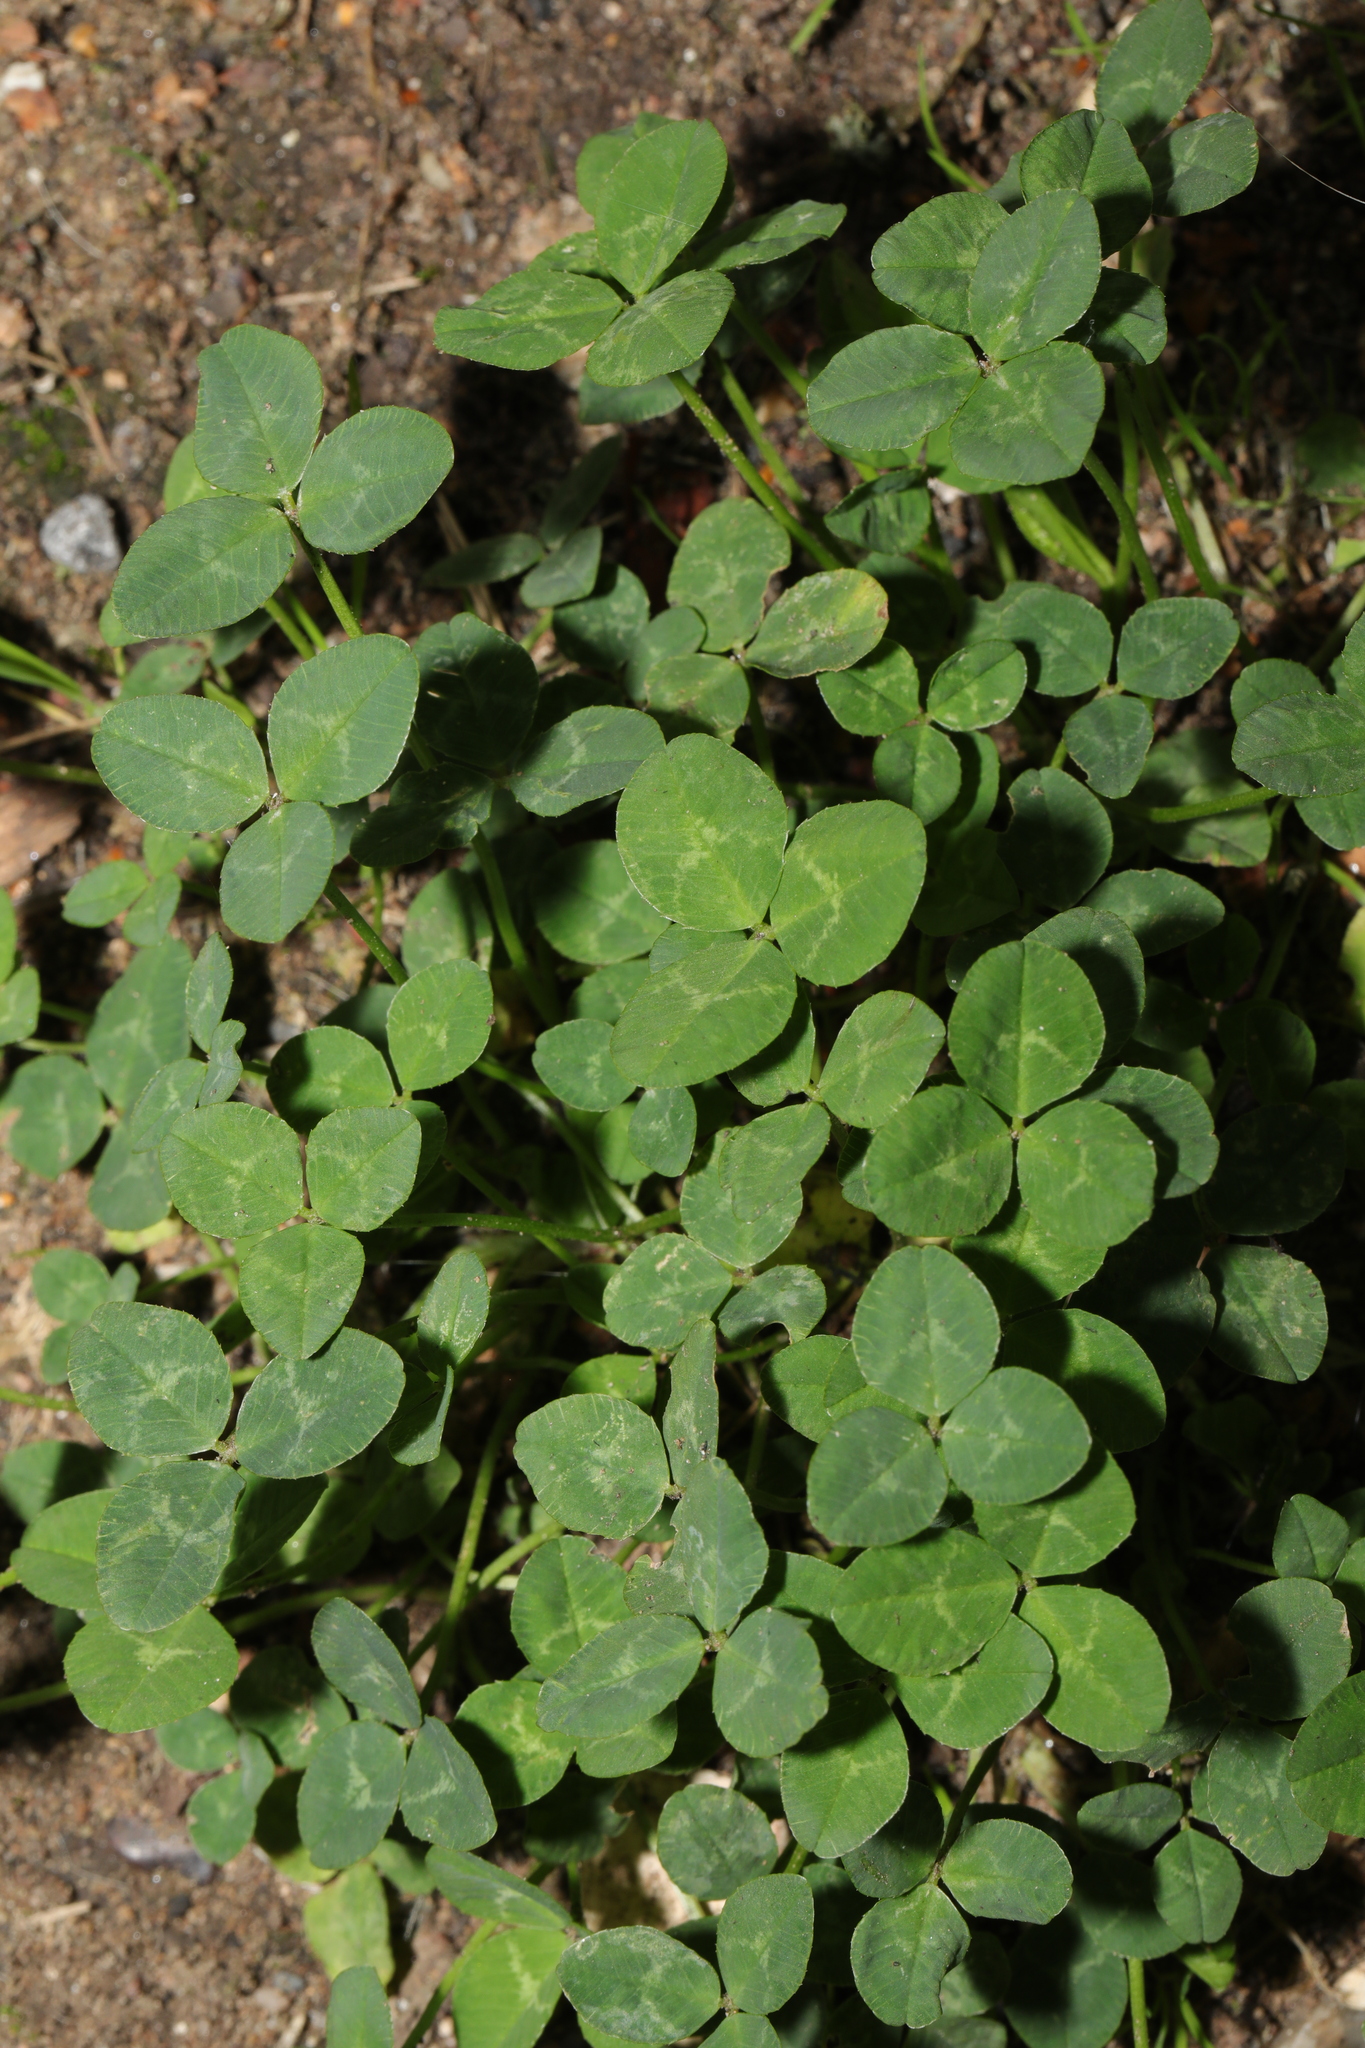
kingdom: Plantae
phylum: Tracheophyta
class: Magnoliopsida
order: Fabales
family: Fabaceae
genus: Trifolium
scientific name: Trifolium repens
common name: White clover
